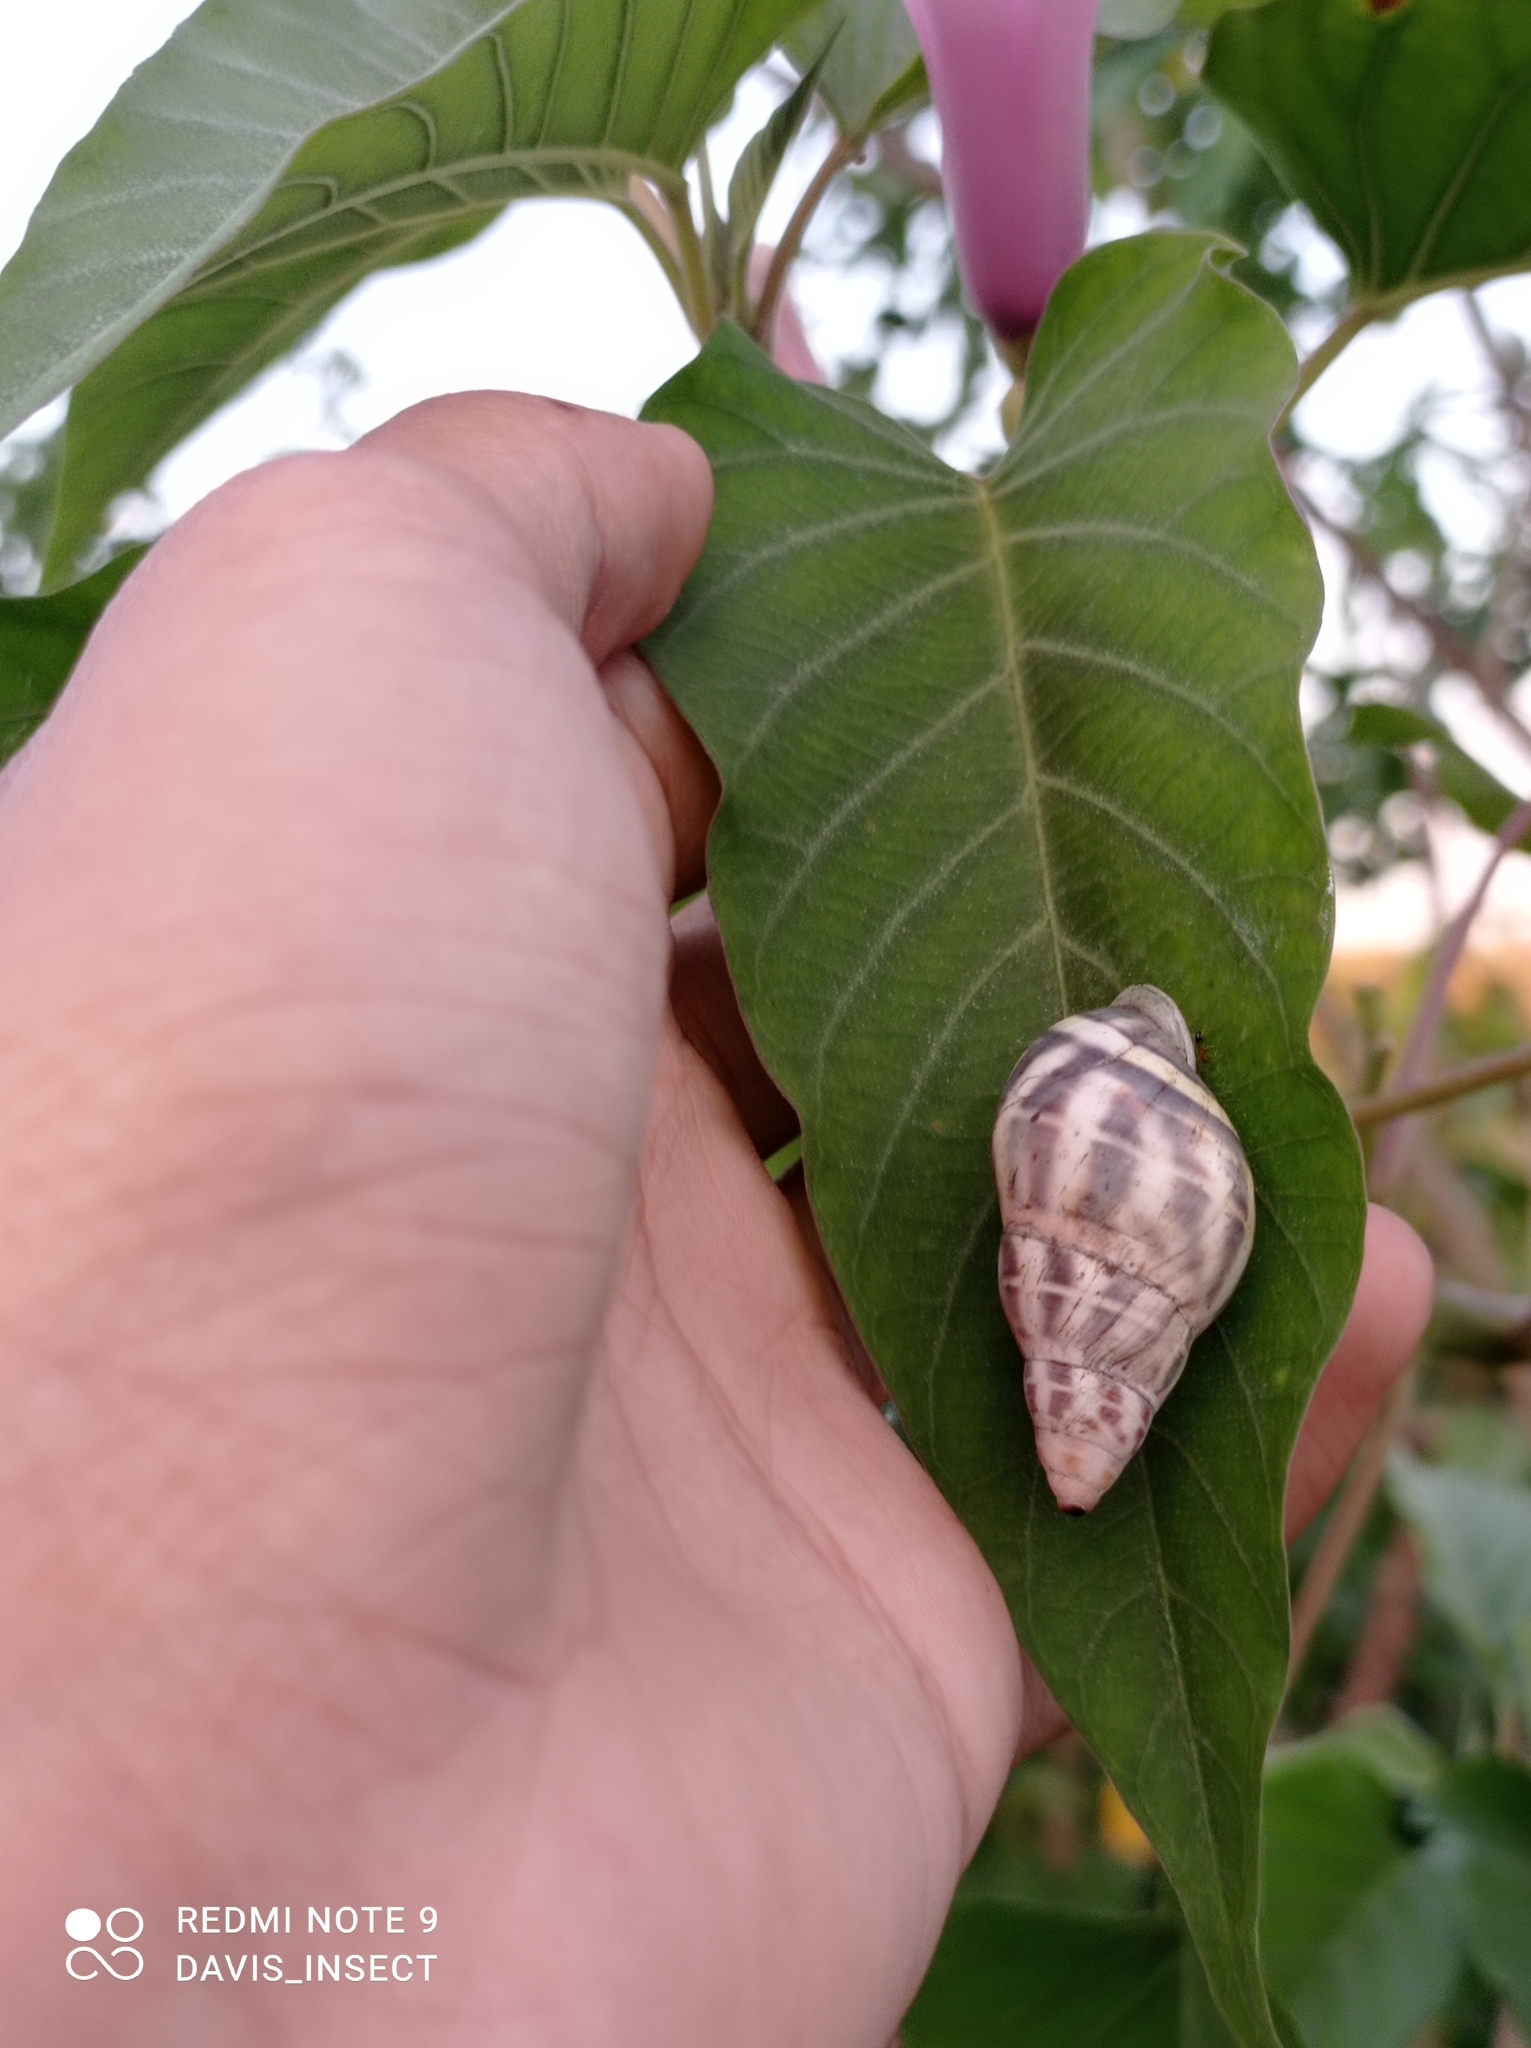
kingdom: Animalia
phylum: Mollusca
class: Gastropoda
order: Stylommatophora
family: Camaenidae
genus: Amphidromus
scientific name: Amphidromus contrarius
